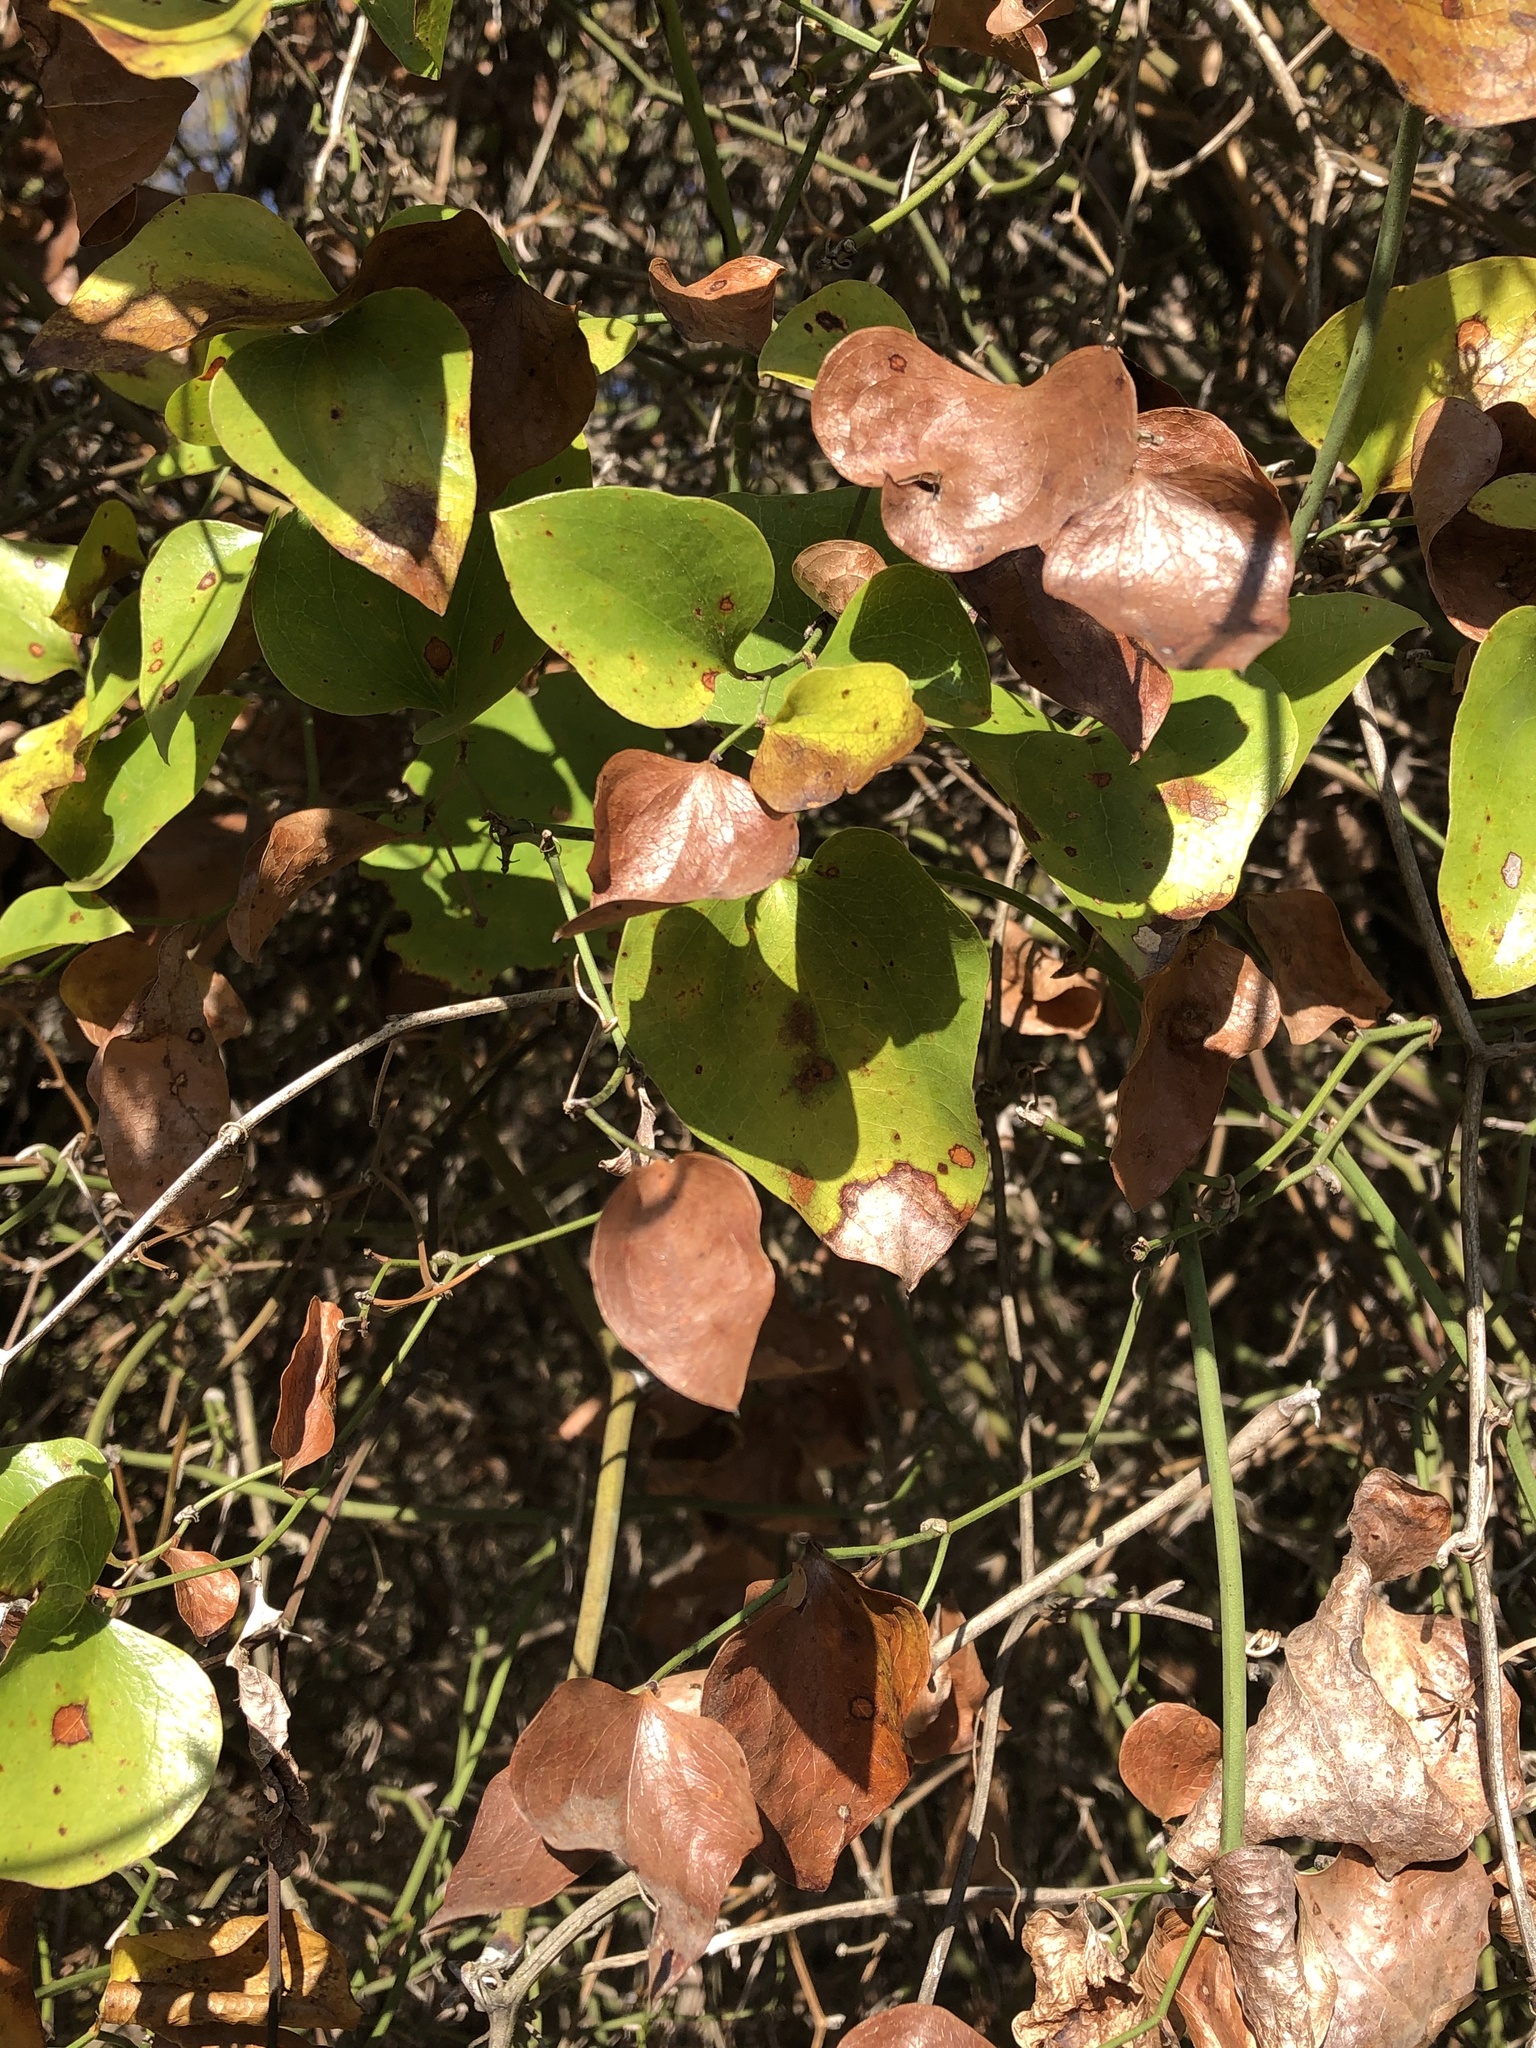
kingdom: Plantae
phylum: Tracheophyta
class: Liliopsida
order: Liliales
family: Smilacaceae
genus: Smilax
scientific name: Smilax rotundifolia
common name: Bullbriar
